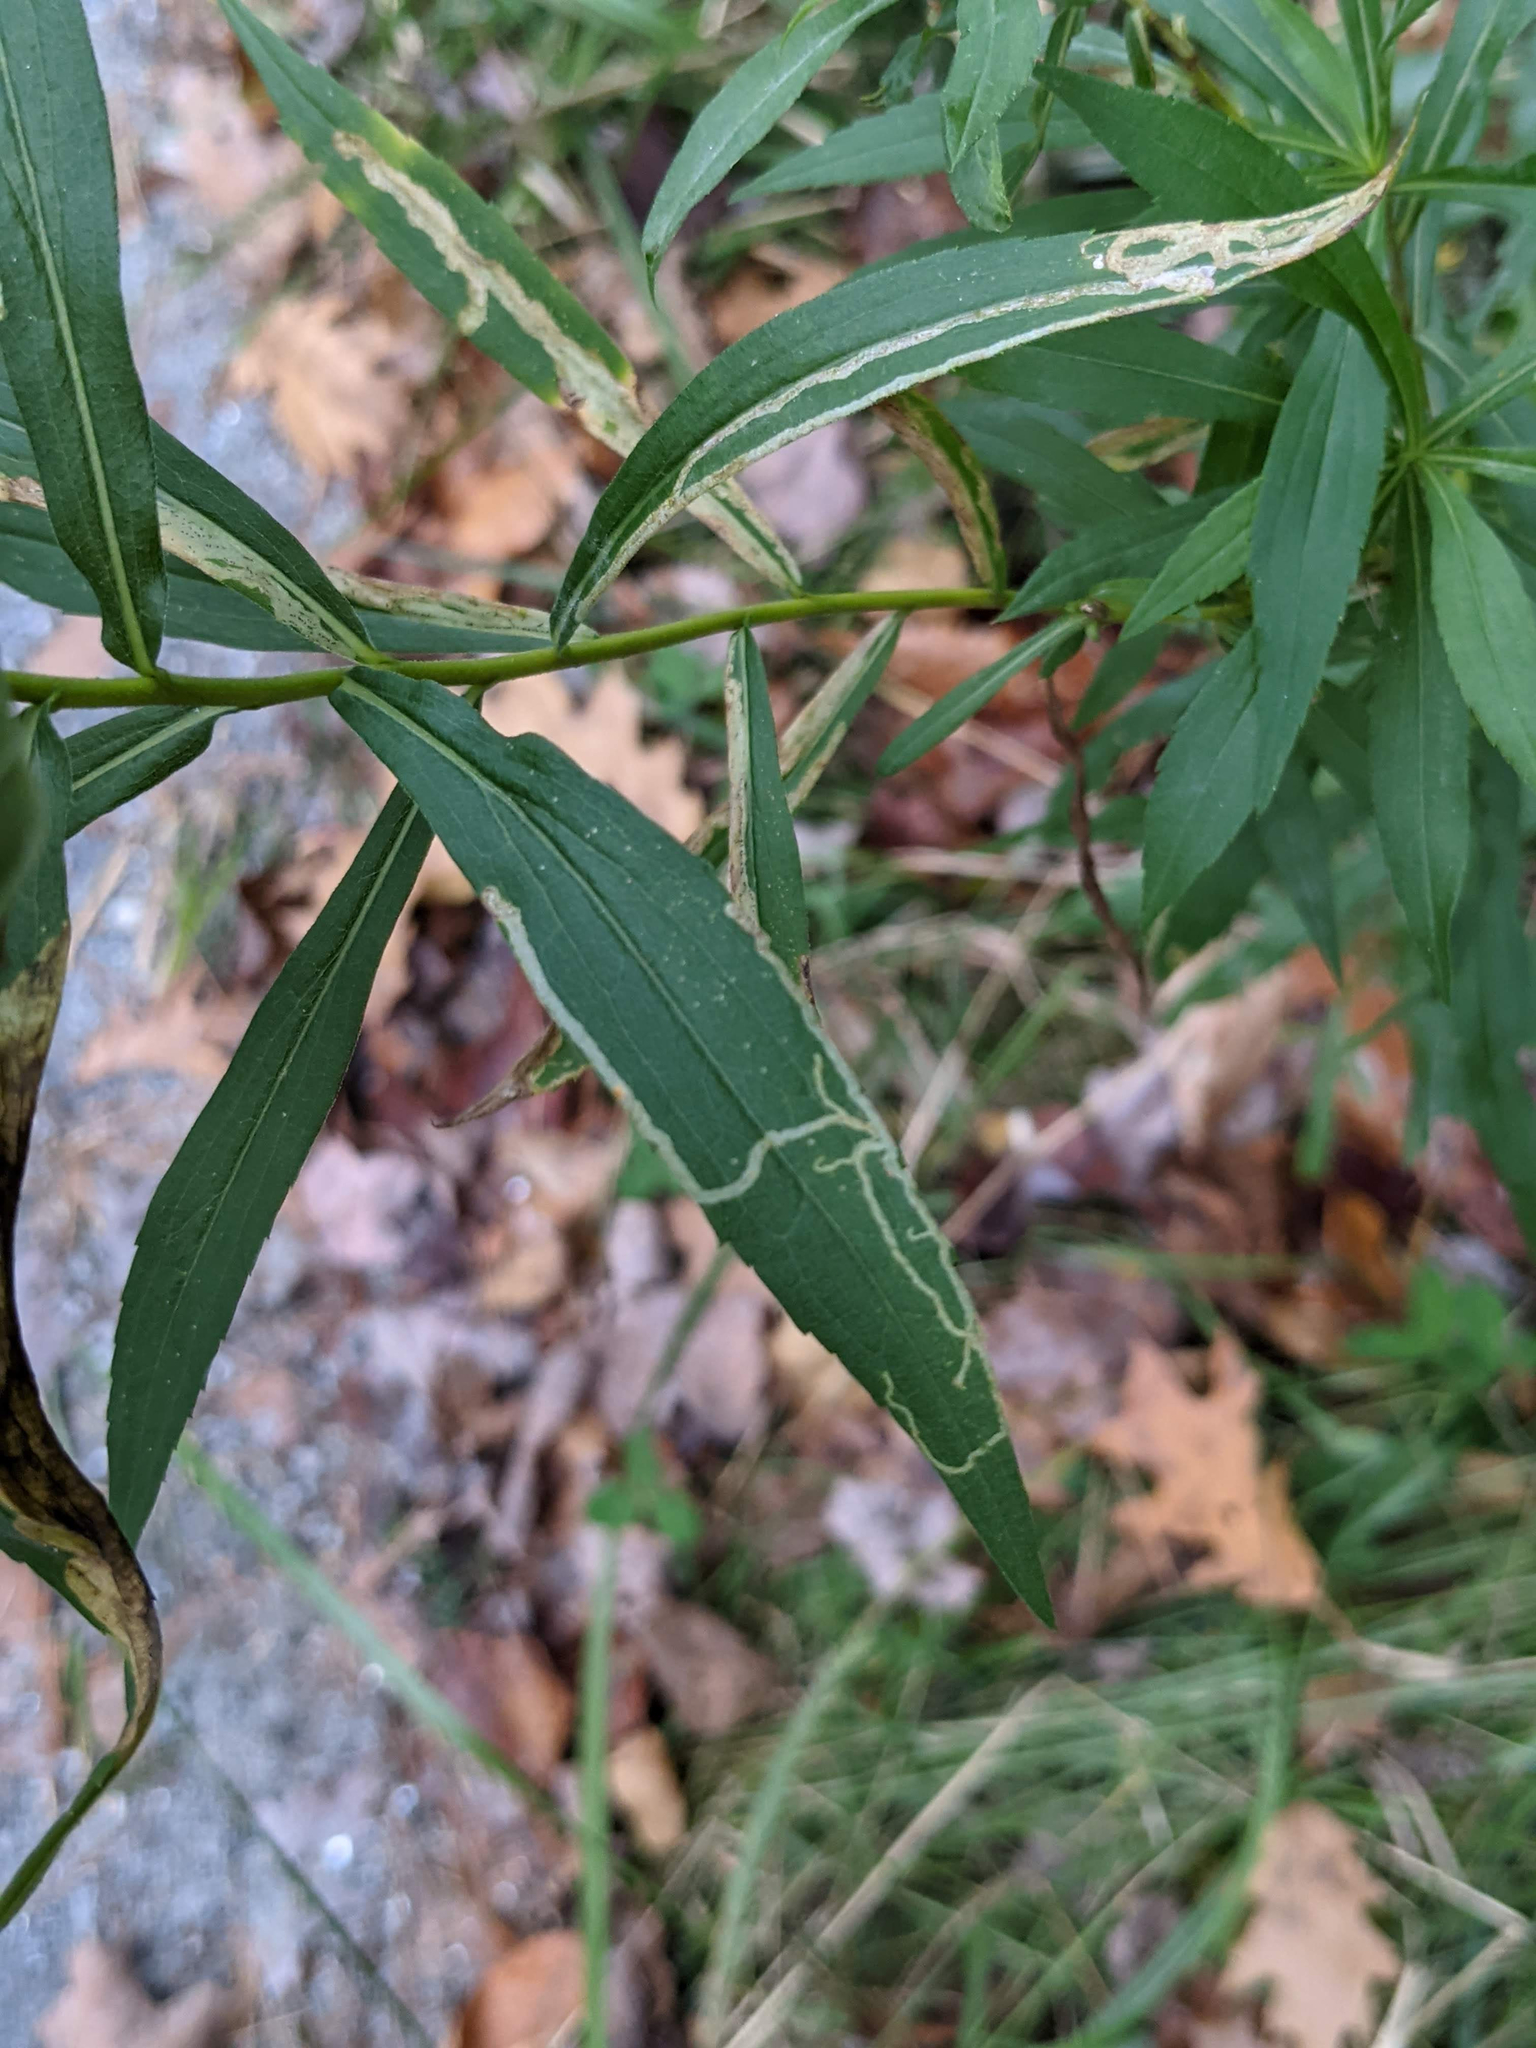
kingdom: Animalia
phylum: Arthropoda
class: Insecta
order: Diptera
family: Agromyzidae
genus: Ophiomyia
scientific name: Ophiomyia maura
